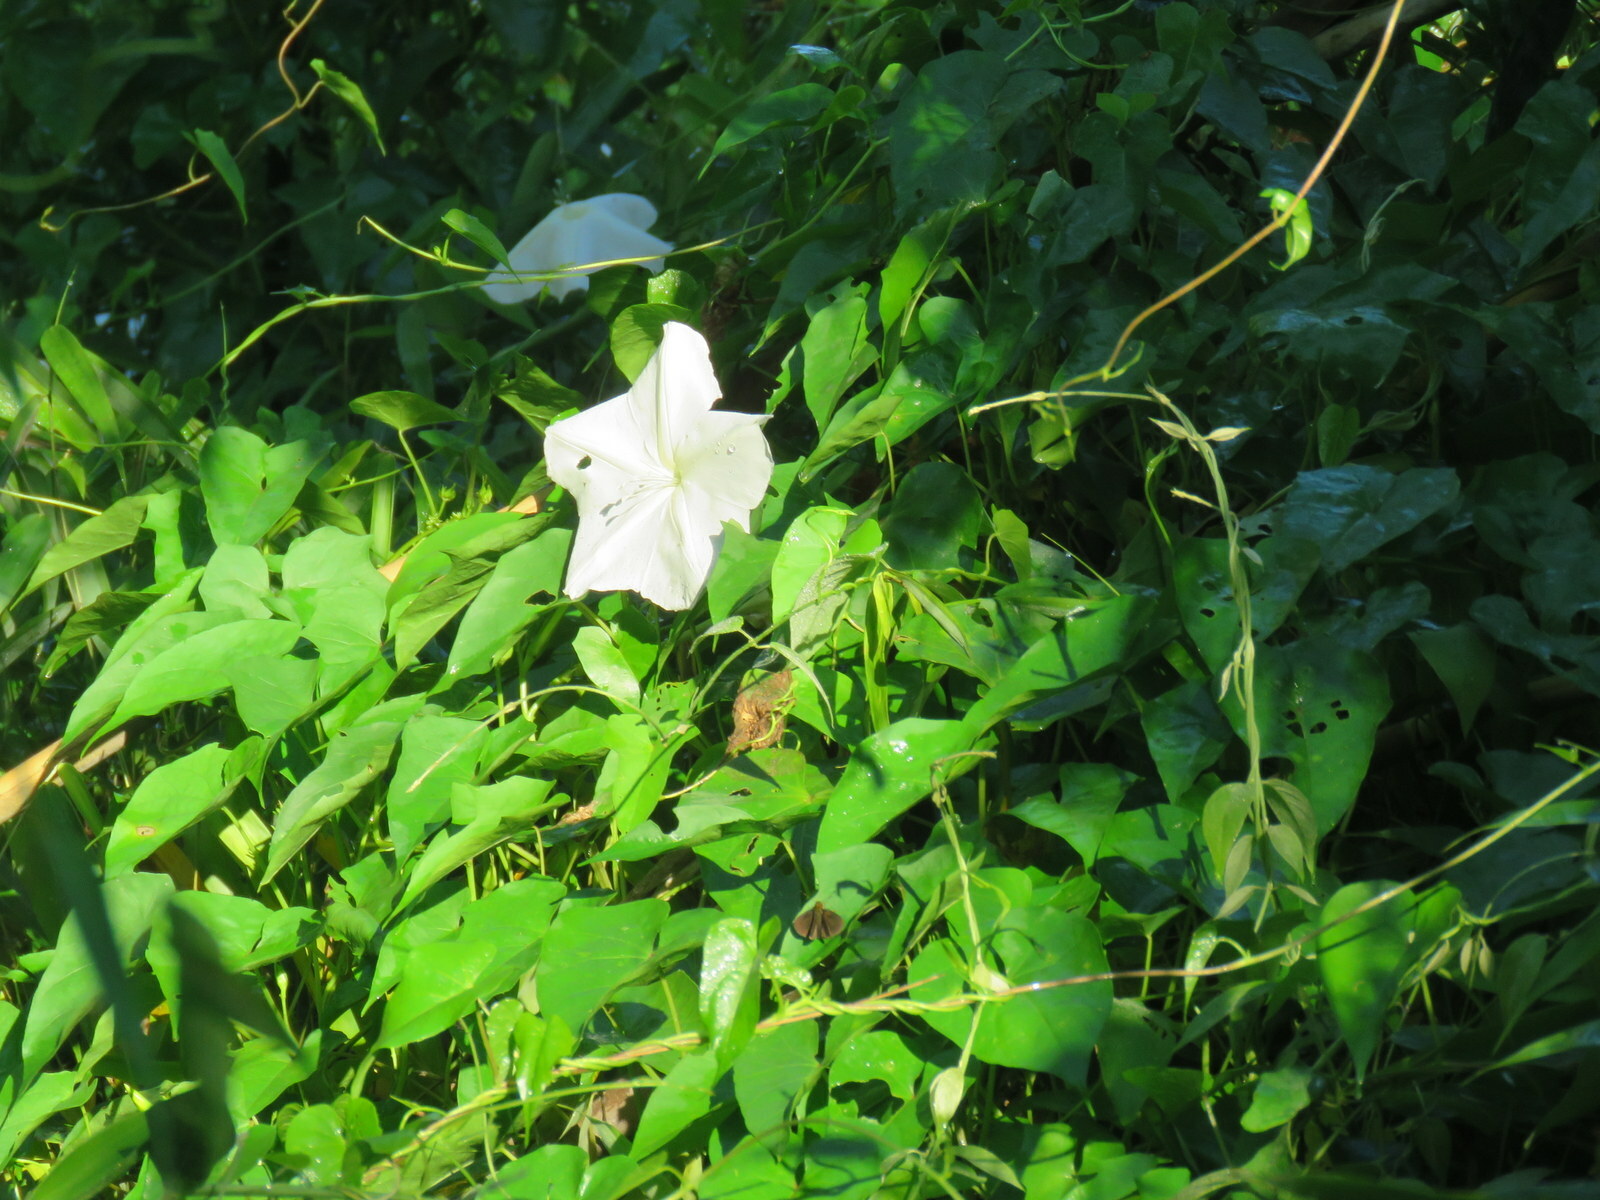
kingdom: Plantae
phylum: Tracheophyta
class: Magnoliopsida
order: Solanales
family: Convolvulaceae
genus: Ipomoea
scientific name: Ipomoea alba
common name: Moonflower
